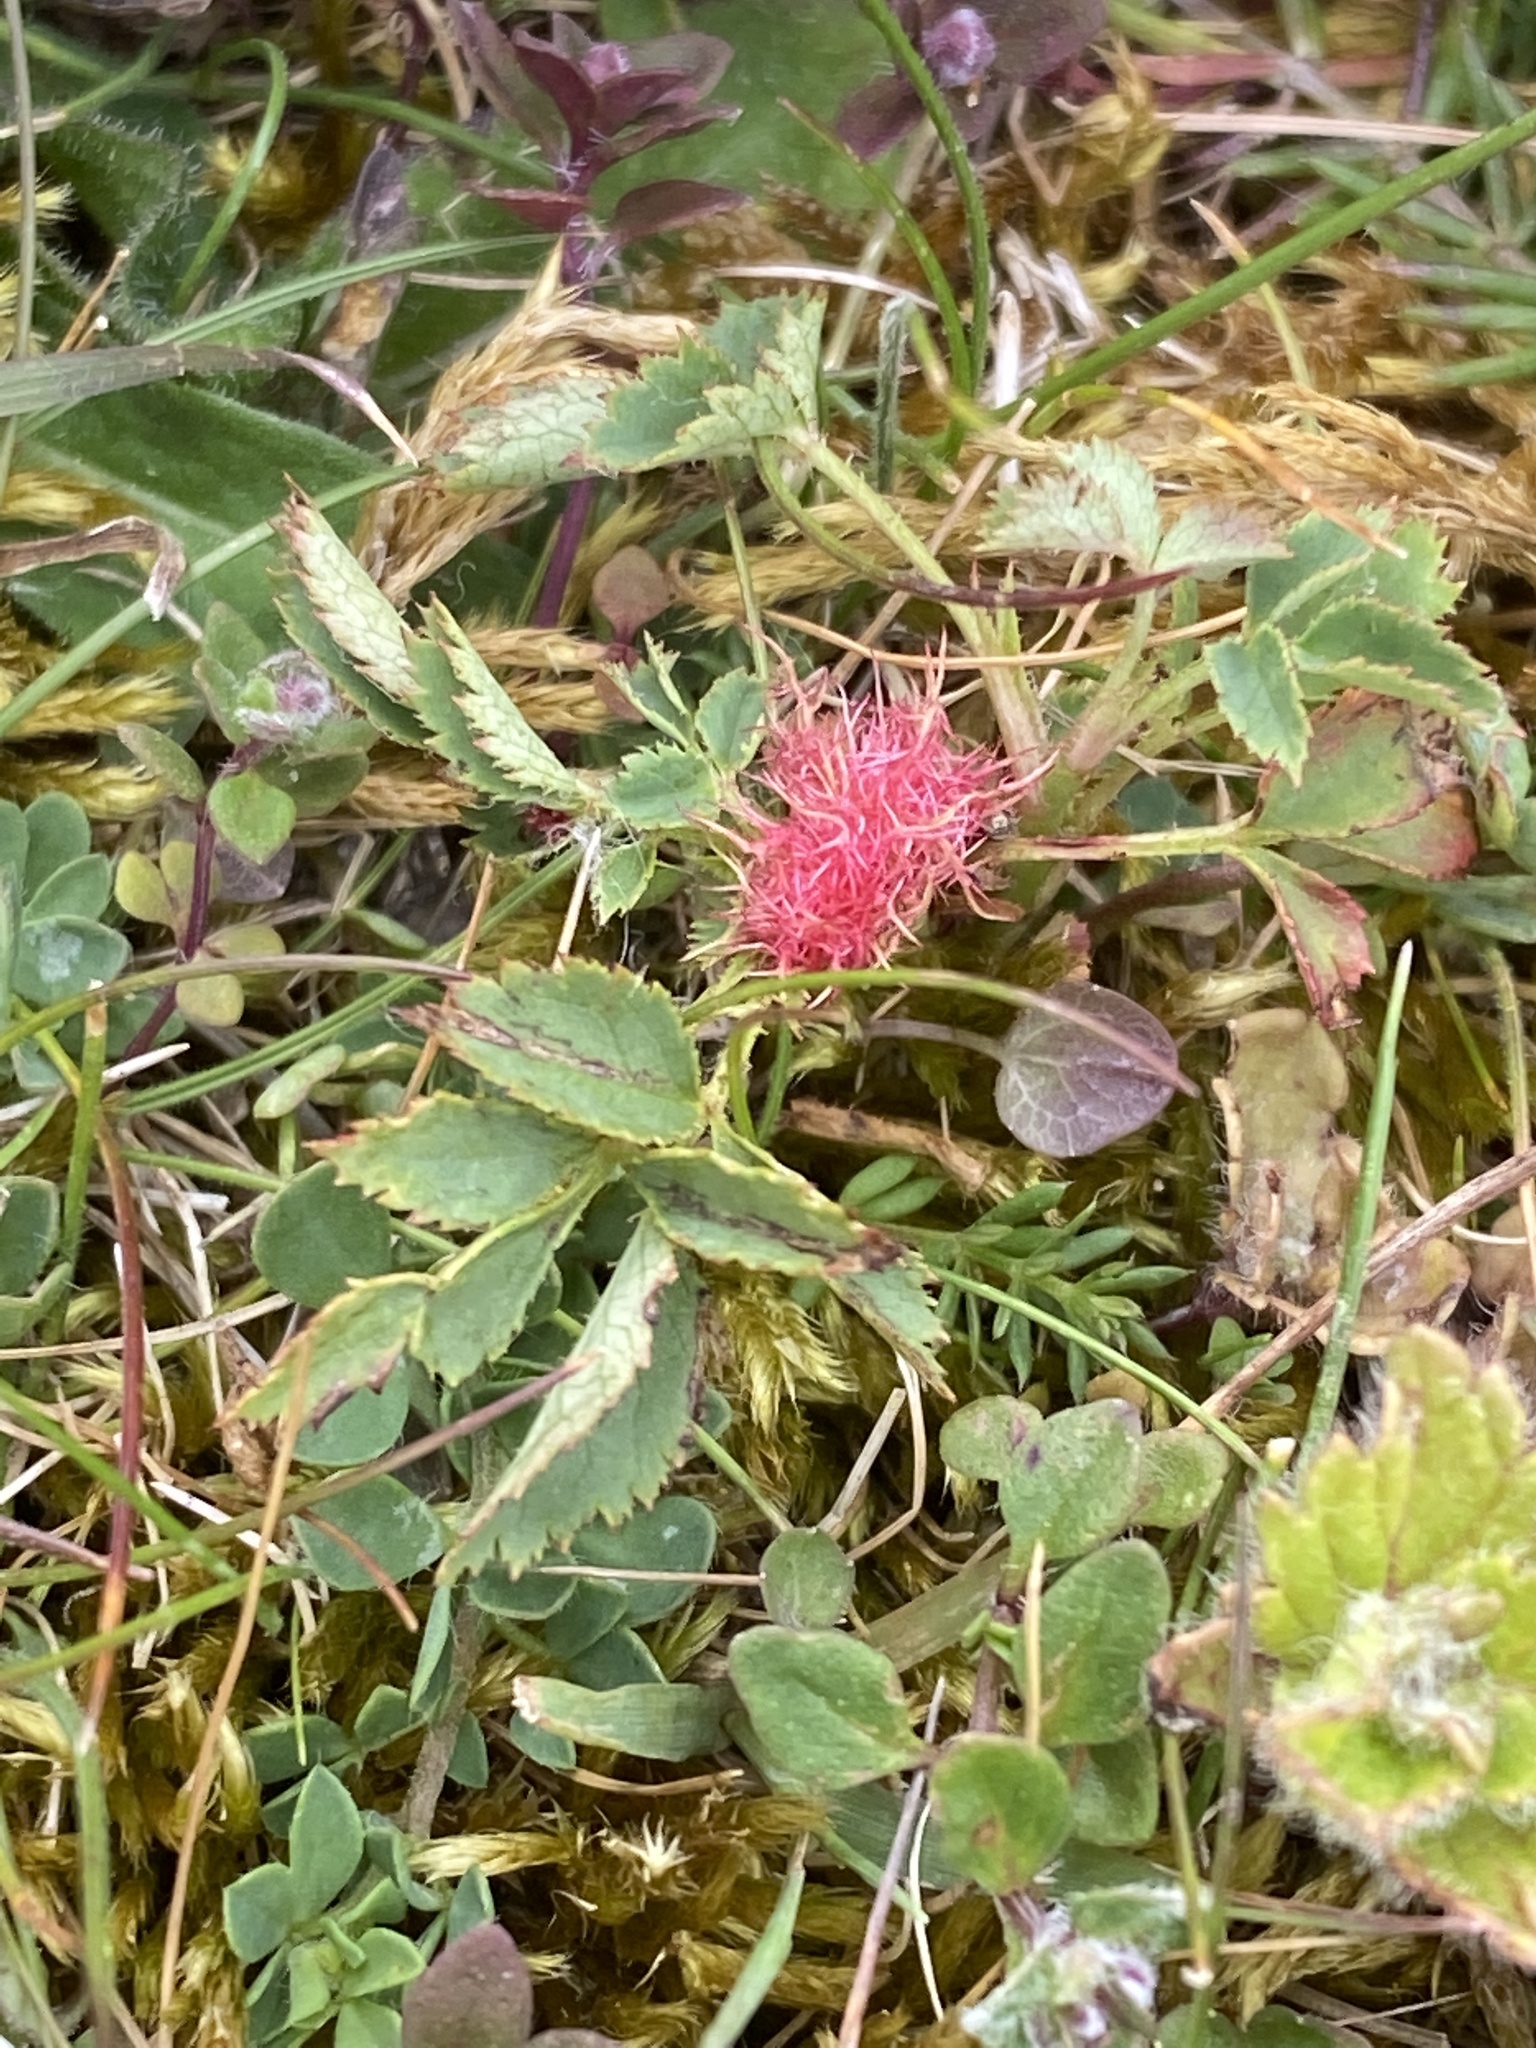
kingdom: Animalia
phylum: Arthropoda
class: Insecta
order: Hymenoptera
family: Cynipidae
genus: Diplolepis
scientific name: Diplolepis rosae
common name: Bedeguar gall
